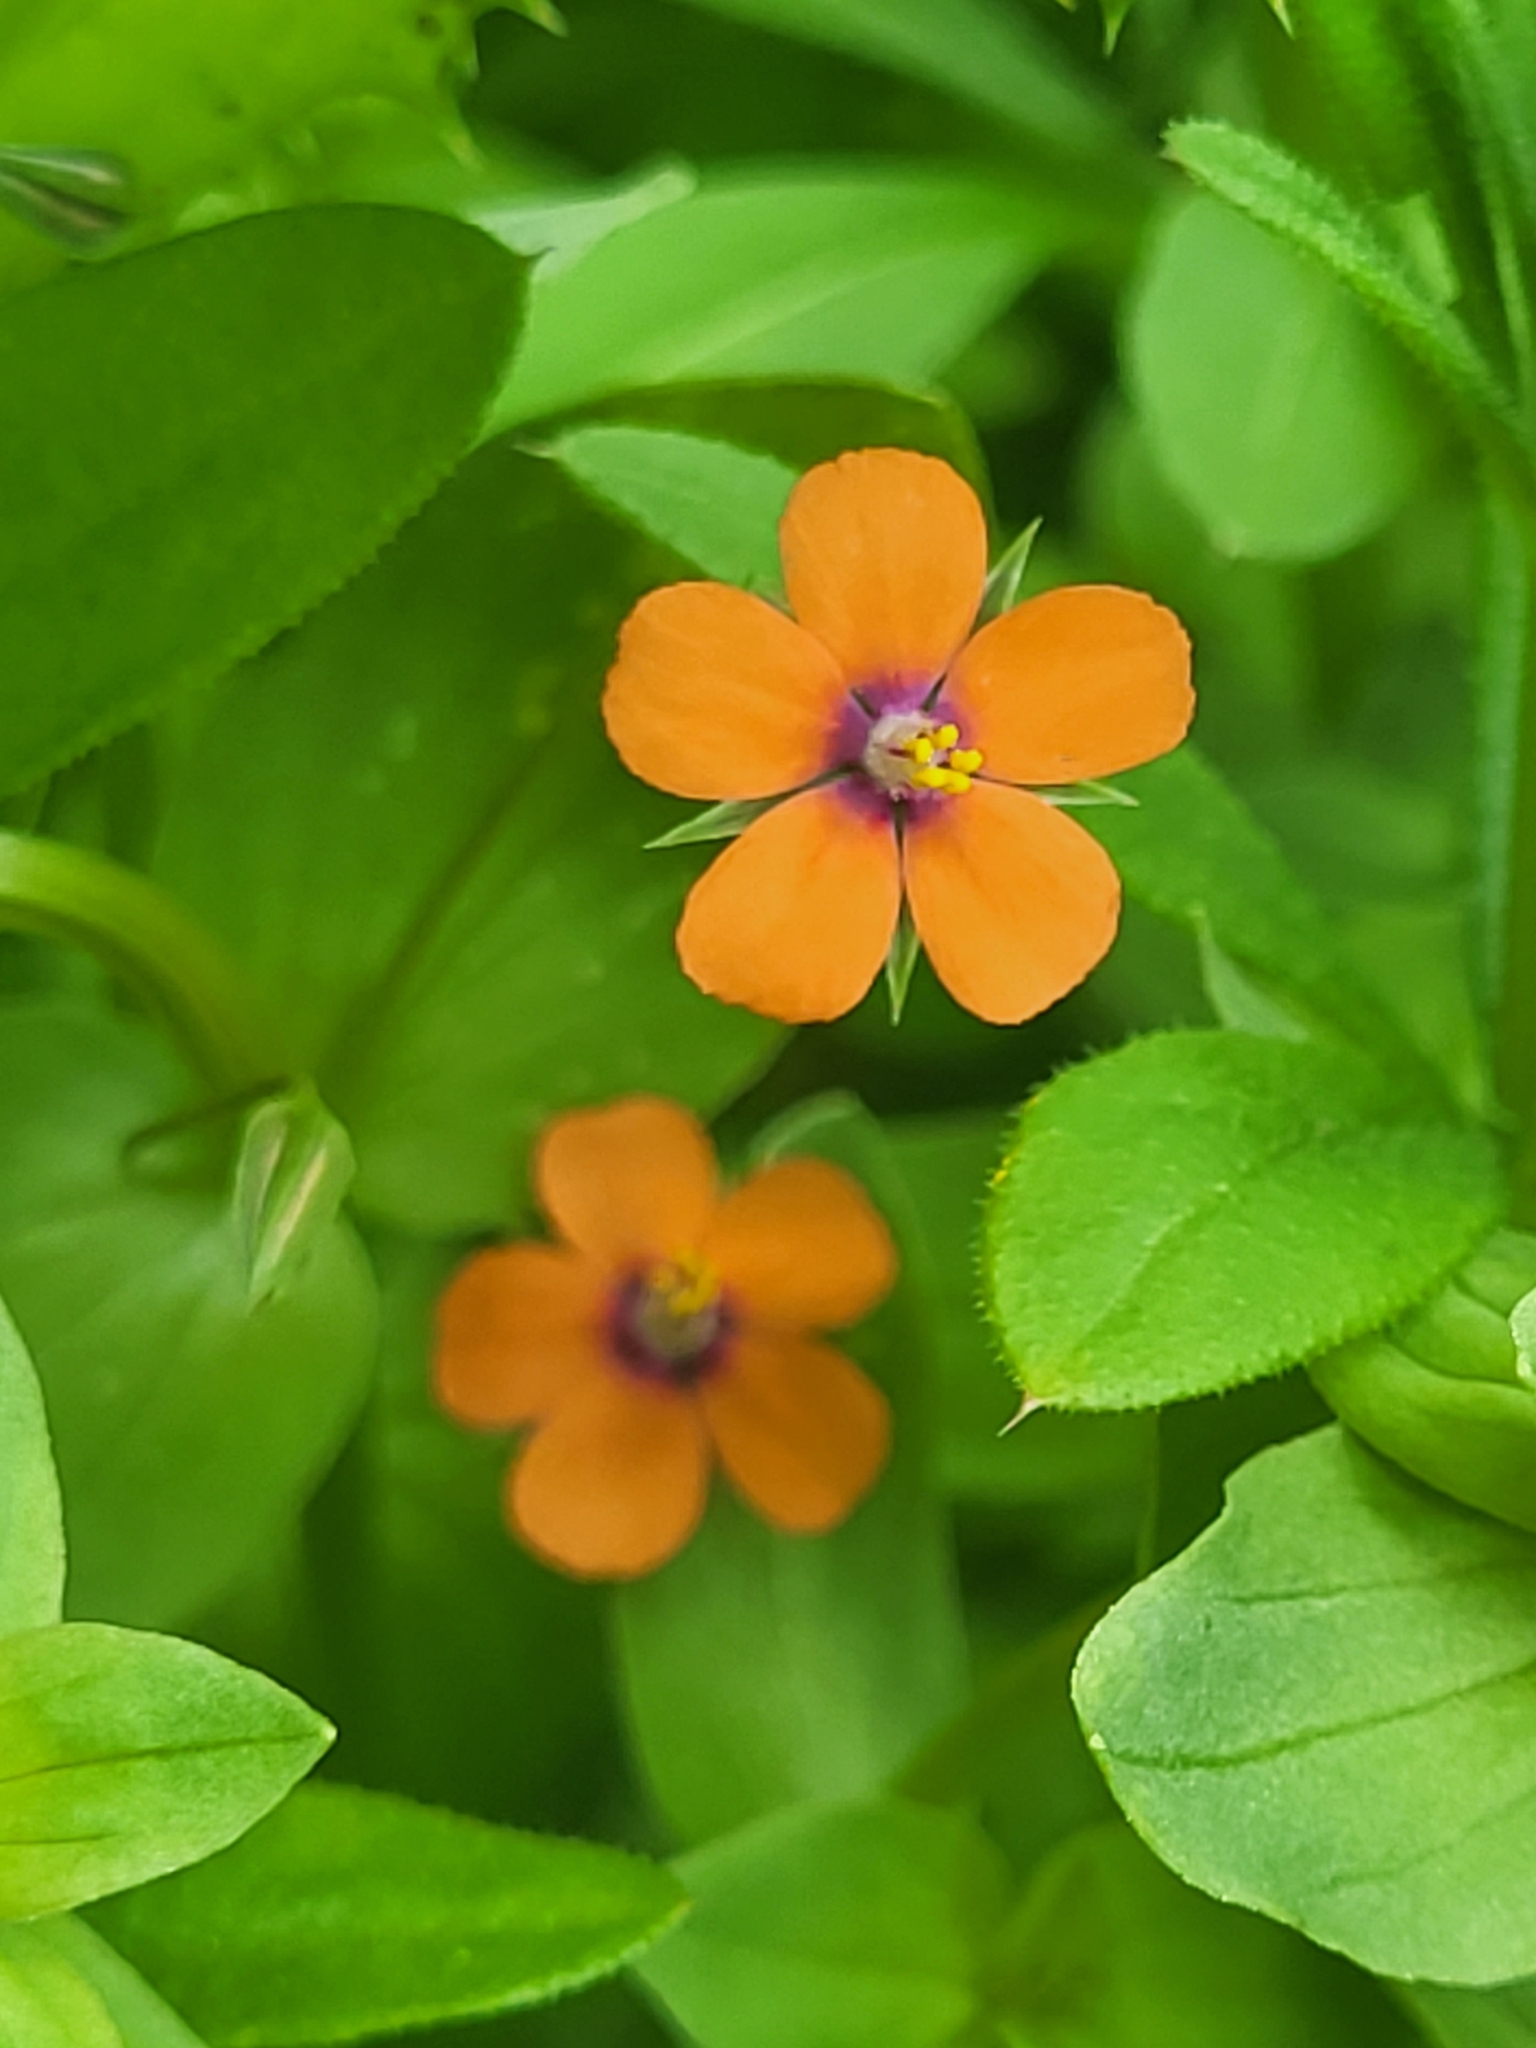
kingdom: Plantae
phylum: Tracheophyta
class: Magnoliopsida
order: Ericales
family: Primulaceae
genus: Lysimachia
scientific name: Lysimachia arvensis
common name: Scarlet pimpernel
